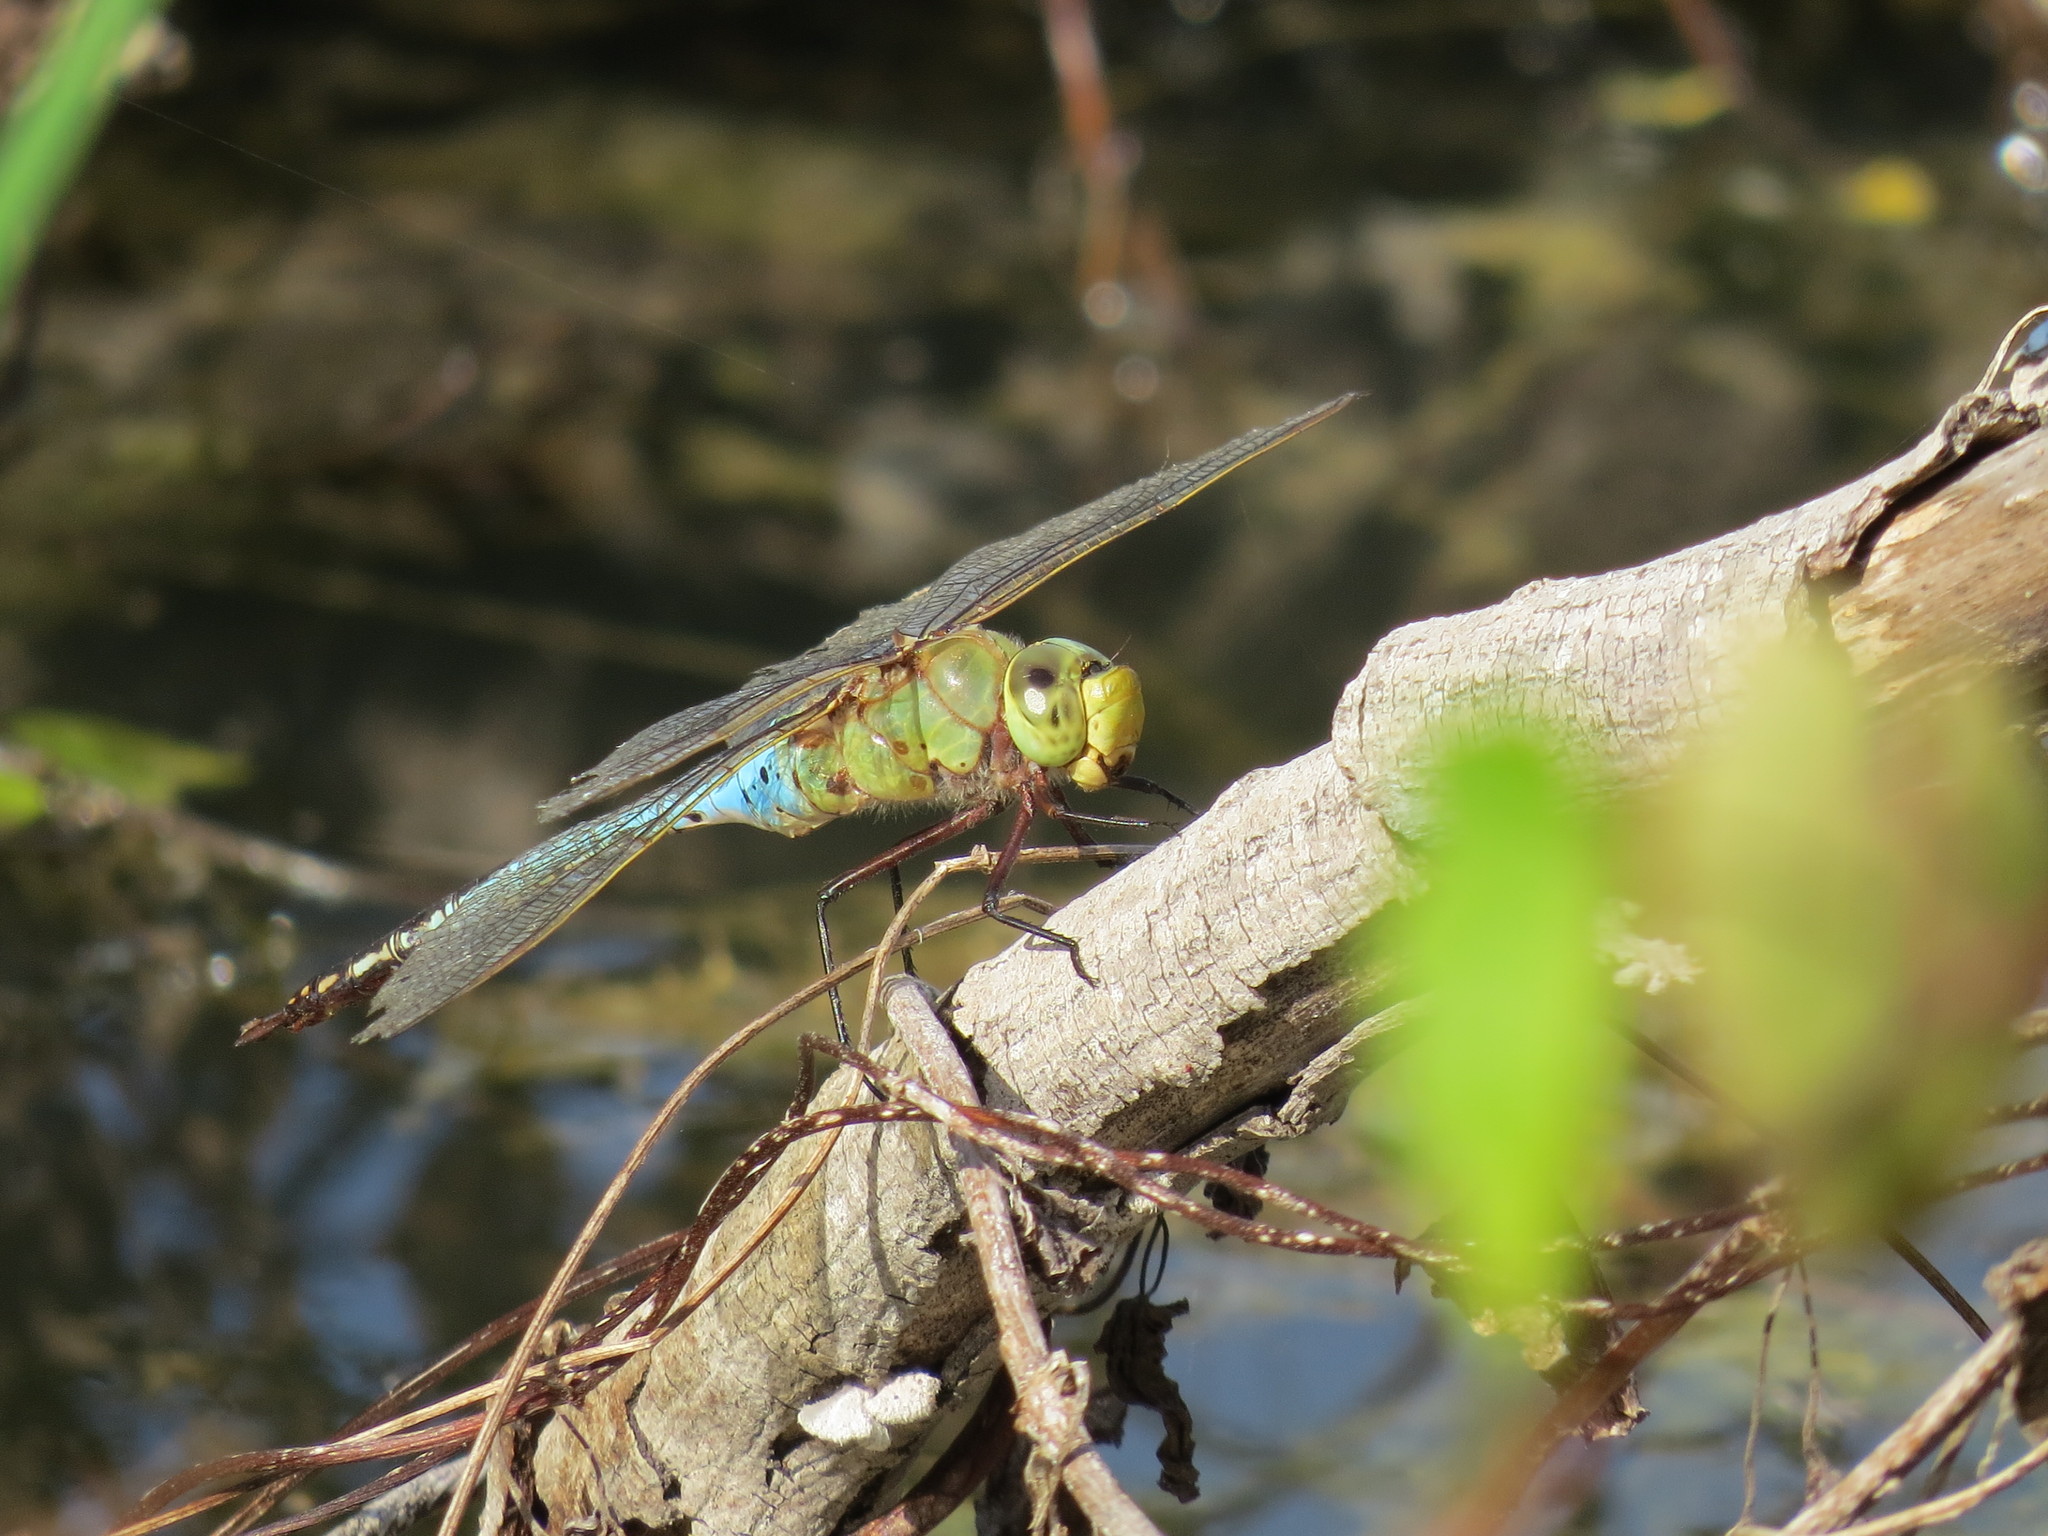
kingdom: Animalia
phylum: Arthropoda
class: Insecta
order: Odonata
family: Aeshnidae
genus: Anax
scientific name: Anax junius
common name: Common green darner
